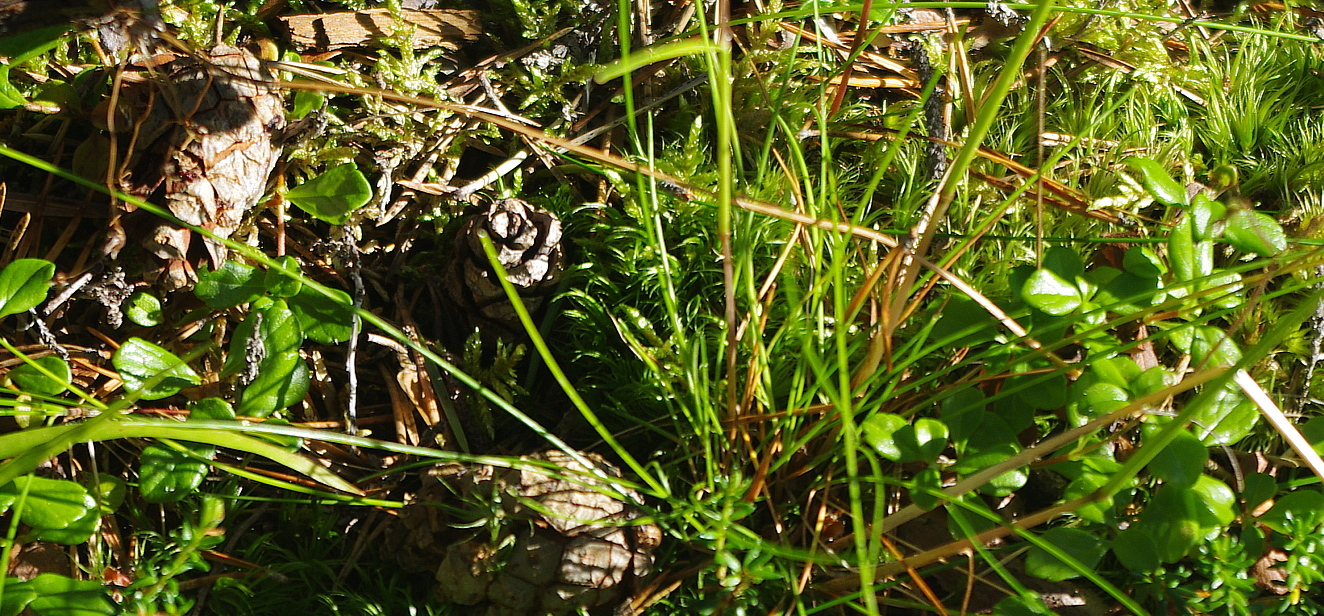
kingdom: Plantae
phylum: Tracheophyta
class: Liliopsida
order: Poales
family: Poaceae
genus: Avenella
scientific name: Avenella flexuosa
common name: Wavy hairgrass
